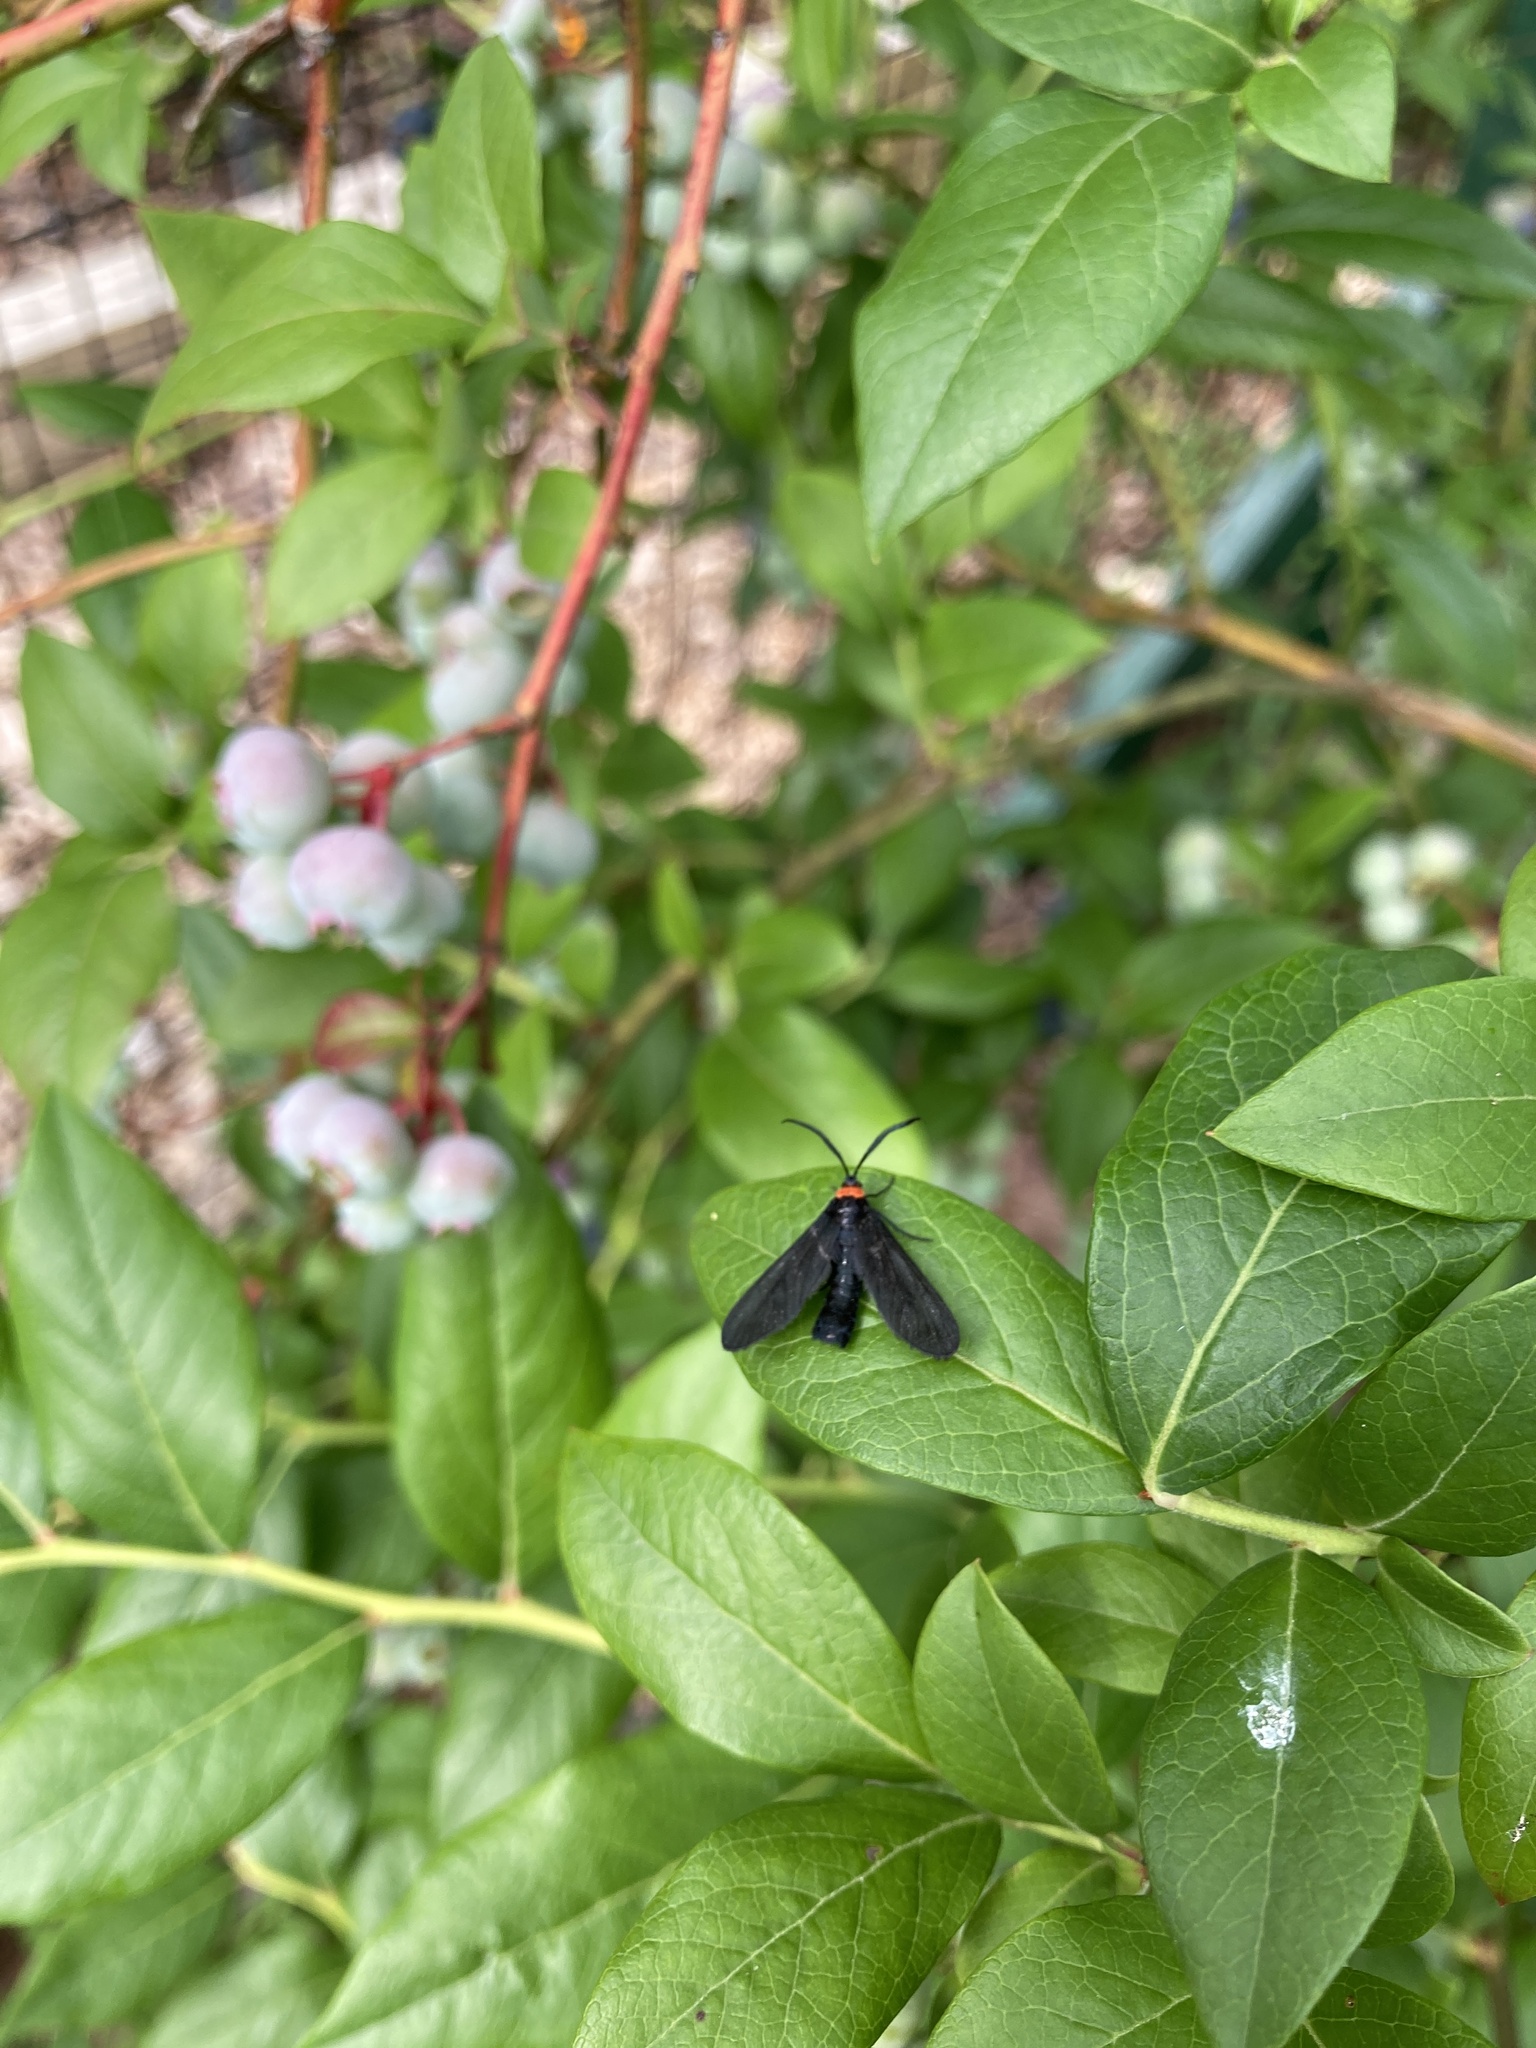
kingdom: Animalia
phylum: Arthropoda
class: Insecta
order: Lepidoptera
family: Zygaenidae
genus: Harrisina
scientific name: Harrisina americana
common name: Grapeleaf skeletonizer moth
